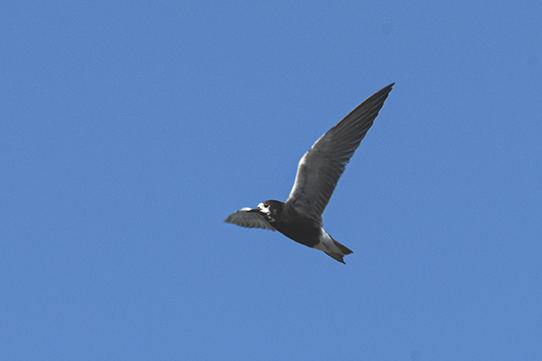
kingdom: Animalia
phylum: Chordata
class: Aves
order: Charadriiformes
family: Laridae
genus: Chlidonias
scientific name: Chlidonias niger
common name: Black tern
